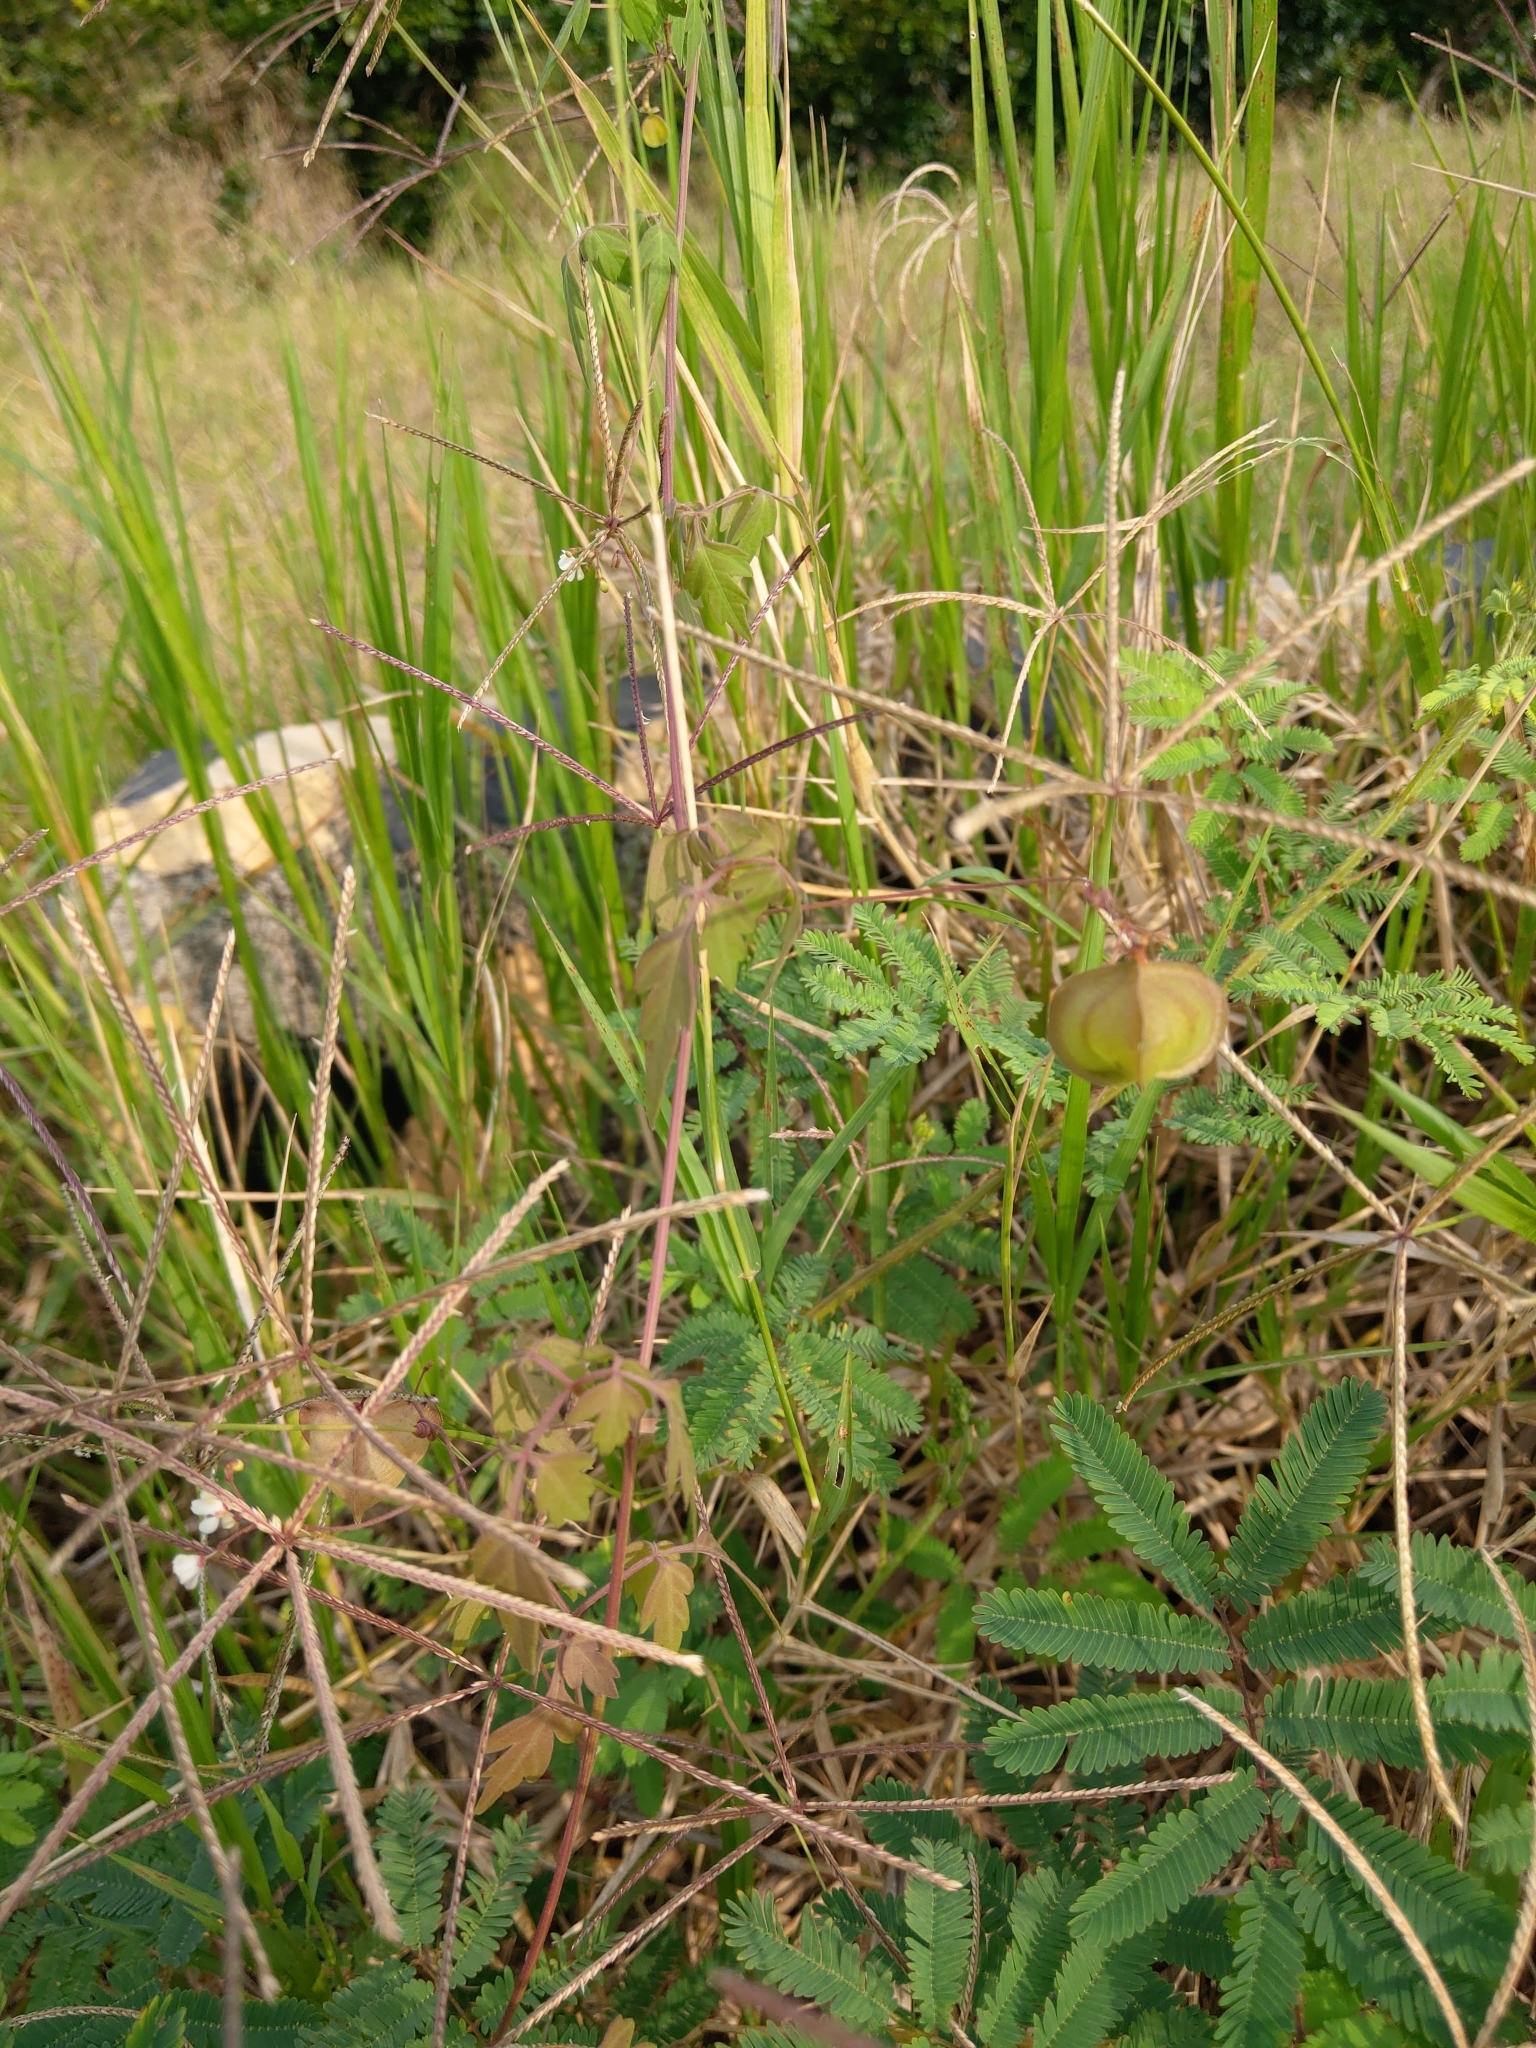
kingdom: Plantae
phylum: Tracheophyta
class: Magnoliopsida
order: Sapindales
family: Sapindaceae
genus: Cardiospermum
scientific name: Cardiospermum halicacabum
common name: Balloon vine
